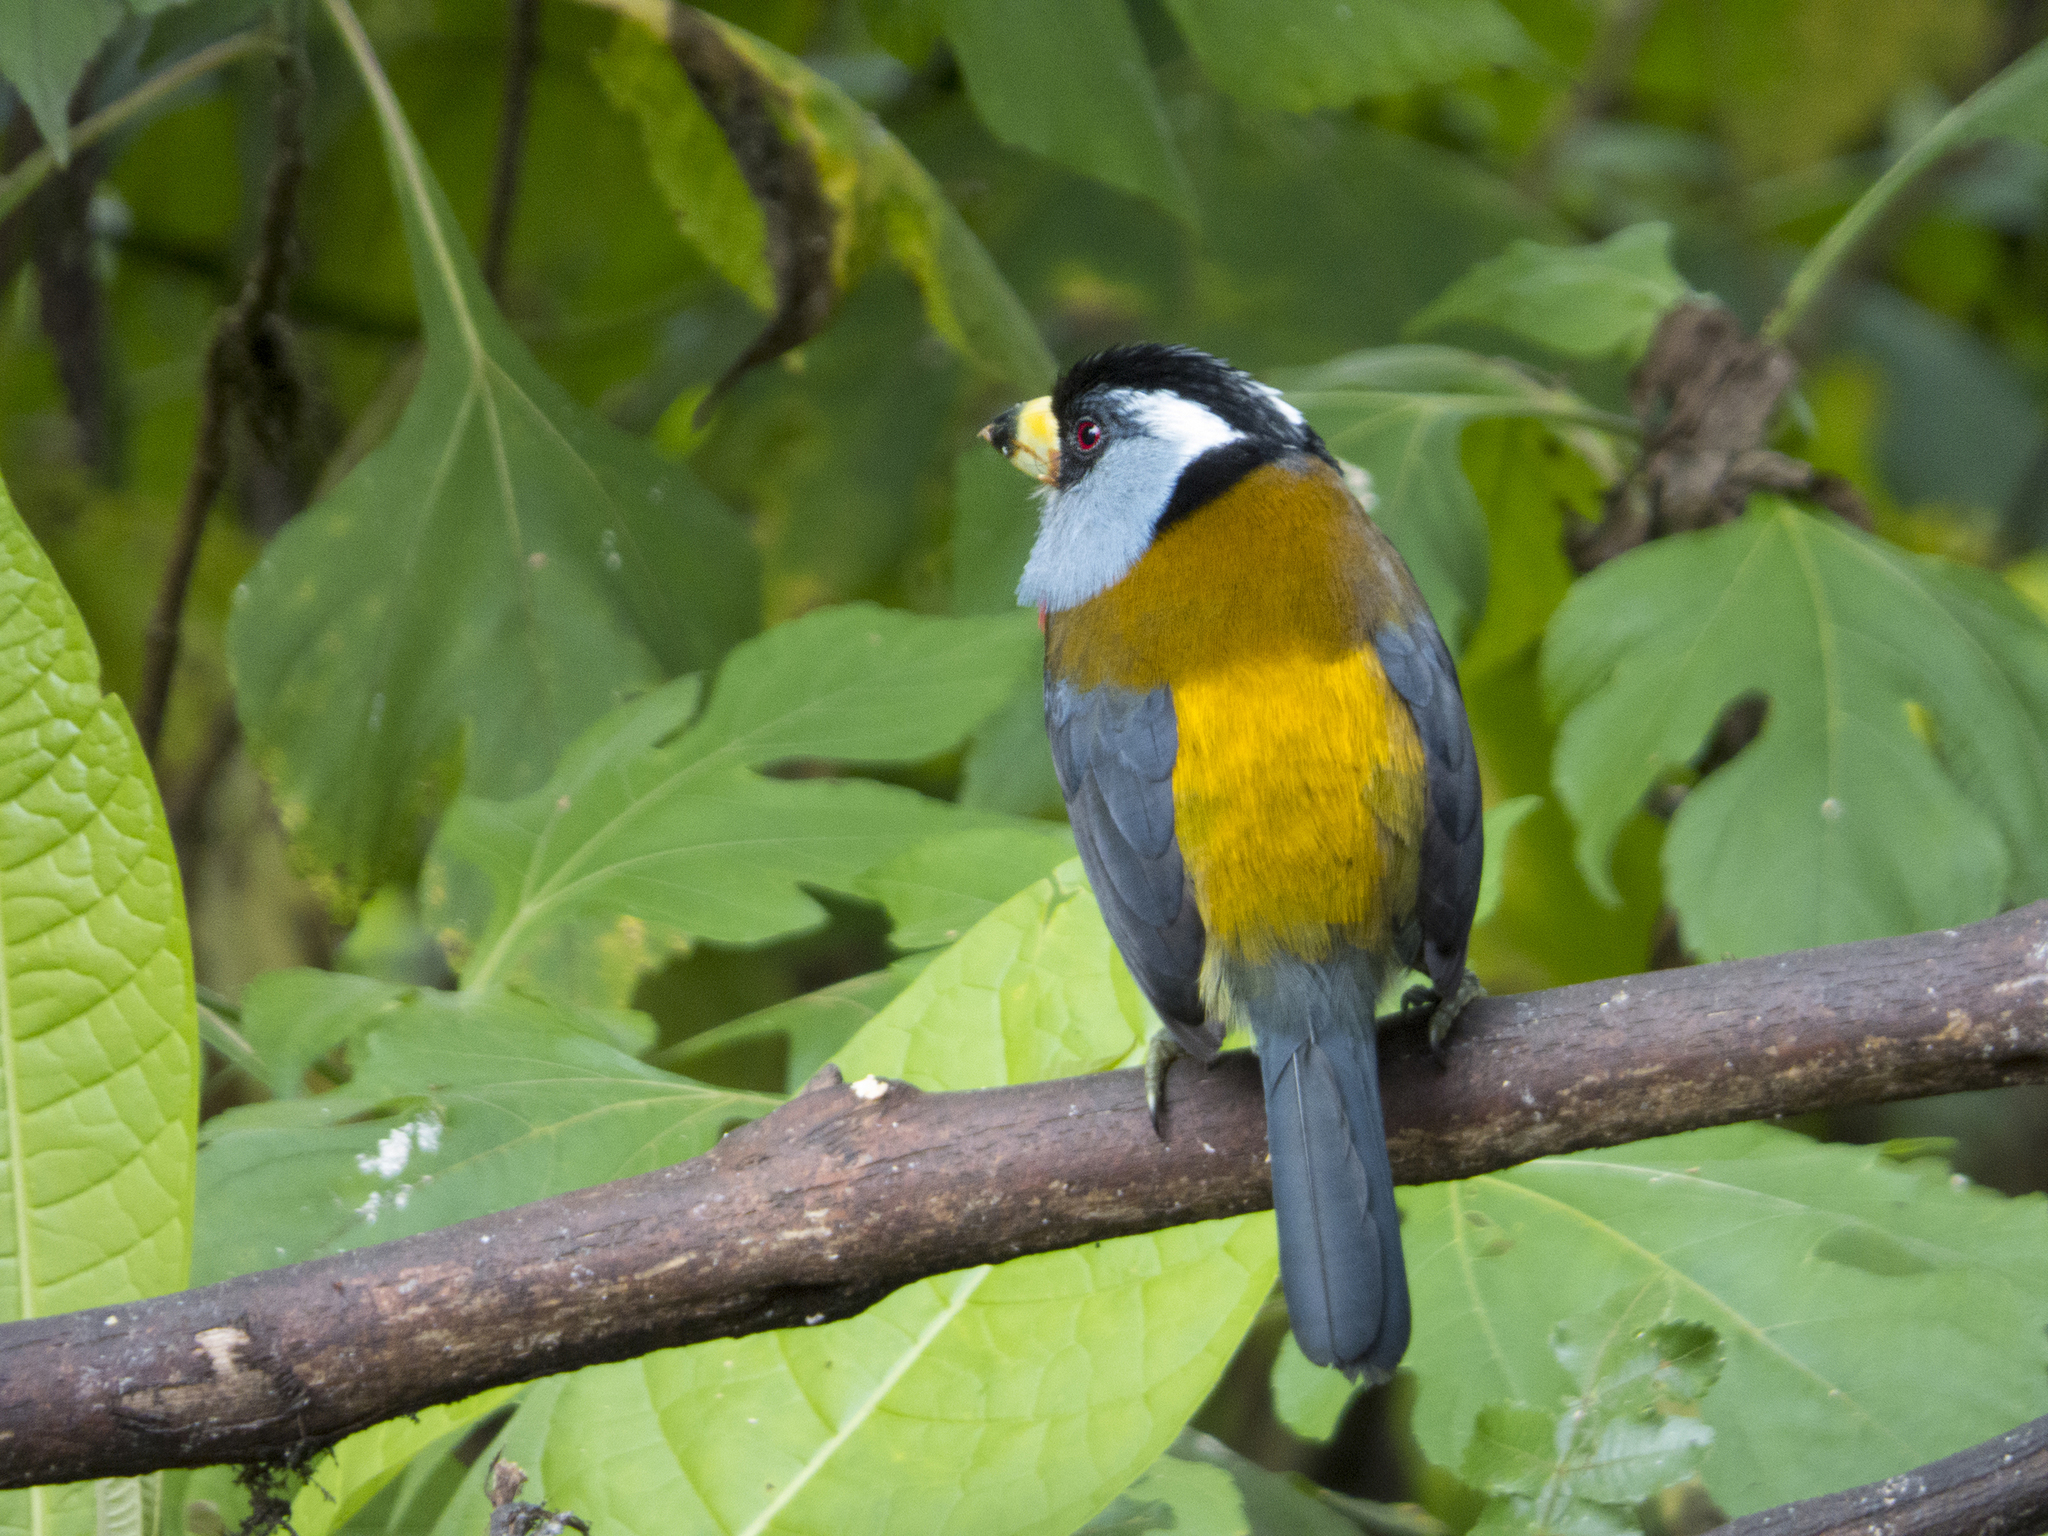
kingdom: Animalia
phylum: Chordata
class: Aves
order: Piciformes
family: Semnornithidae
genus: Semnornis
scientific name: Semnornis ramphastinus
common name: Toucan barbet
